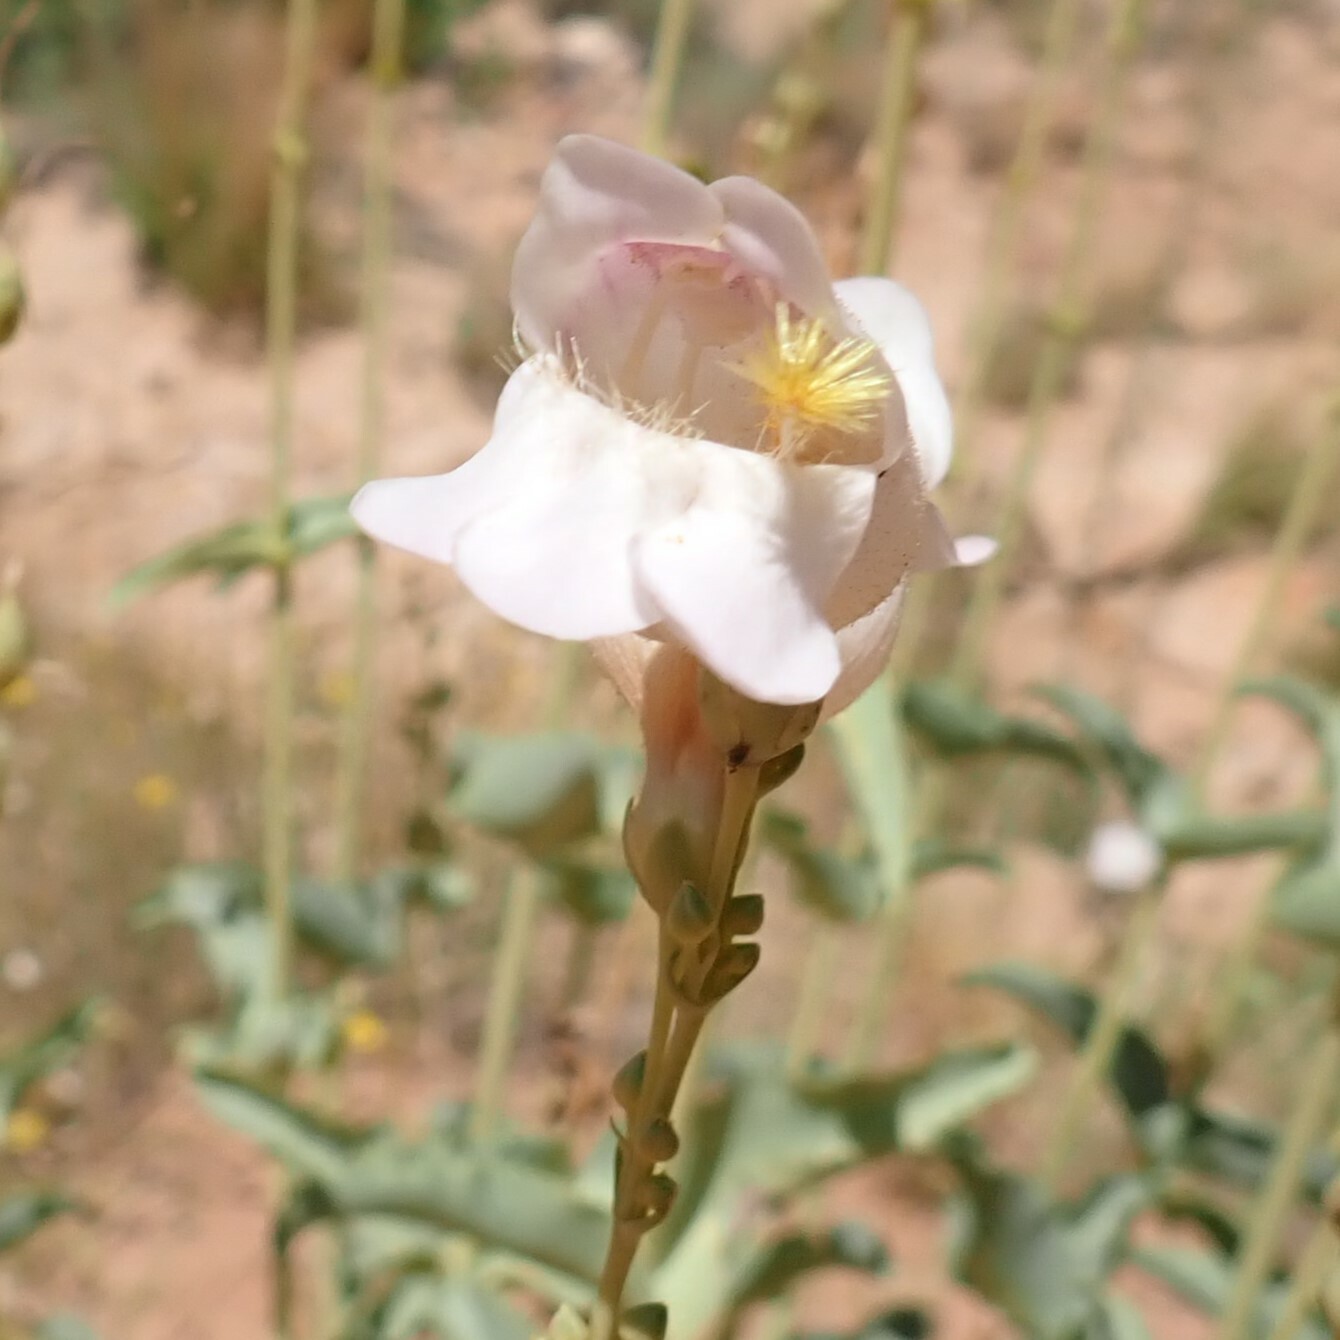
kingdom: Plantae
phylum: Tracheophyta
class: Magnoliopsida
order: Lamiales
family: Plantaginaceae
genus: Penstemon
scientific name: Penstemon palmeri
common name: Palmer penstemon
